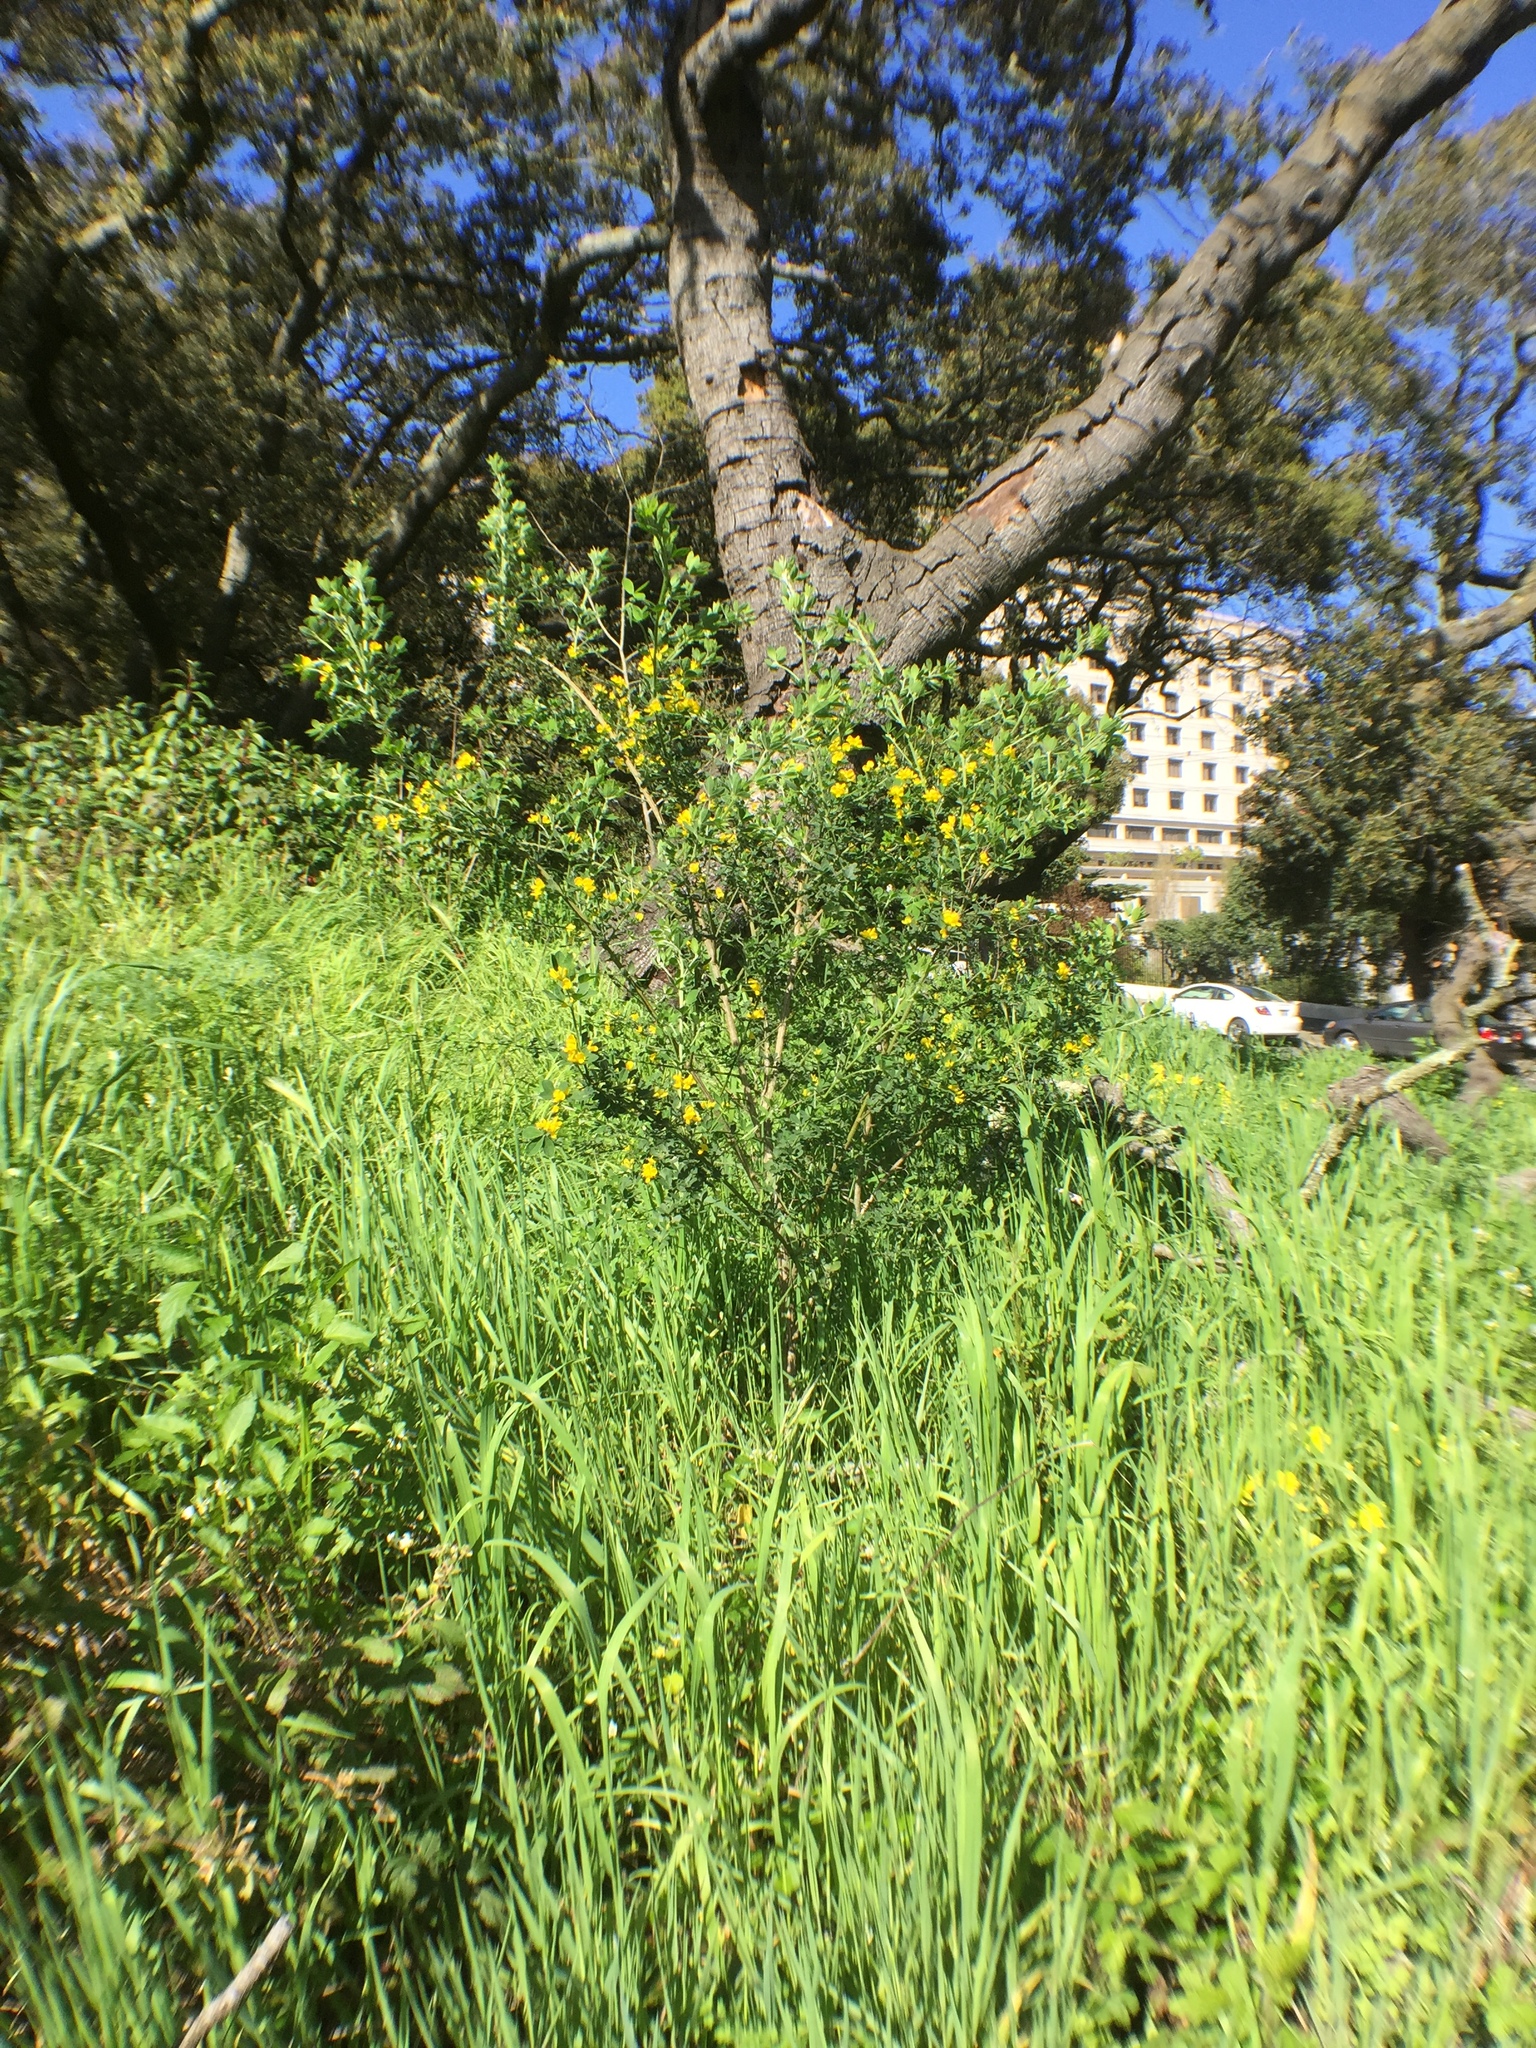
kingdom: Plantae
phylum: Tracheophyta
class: Magnoliopsida
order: Fabales
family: Fabaceae
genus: Genista
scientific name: Genista monspessulana
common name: Montpellier broom
